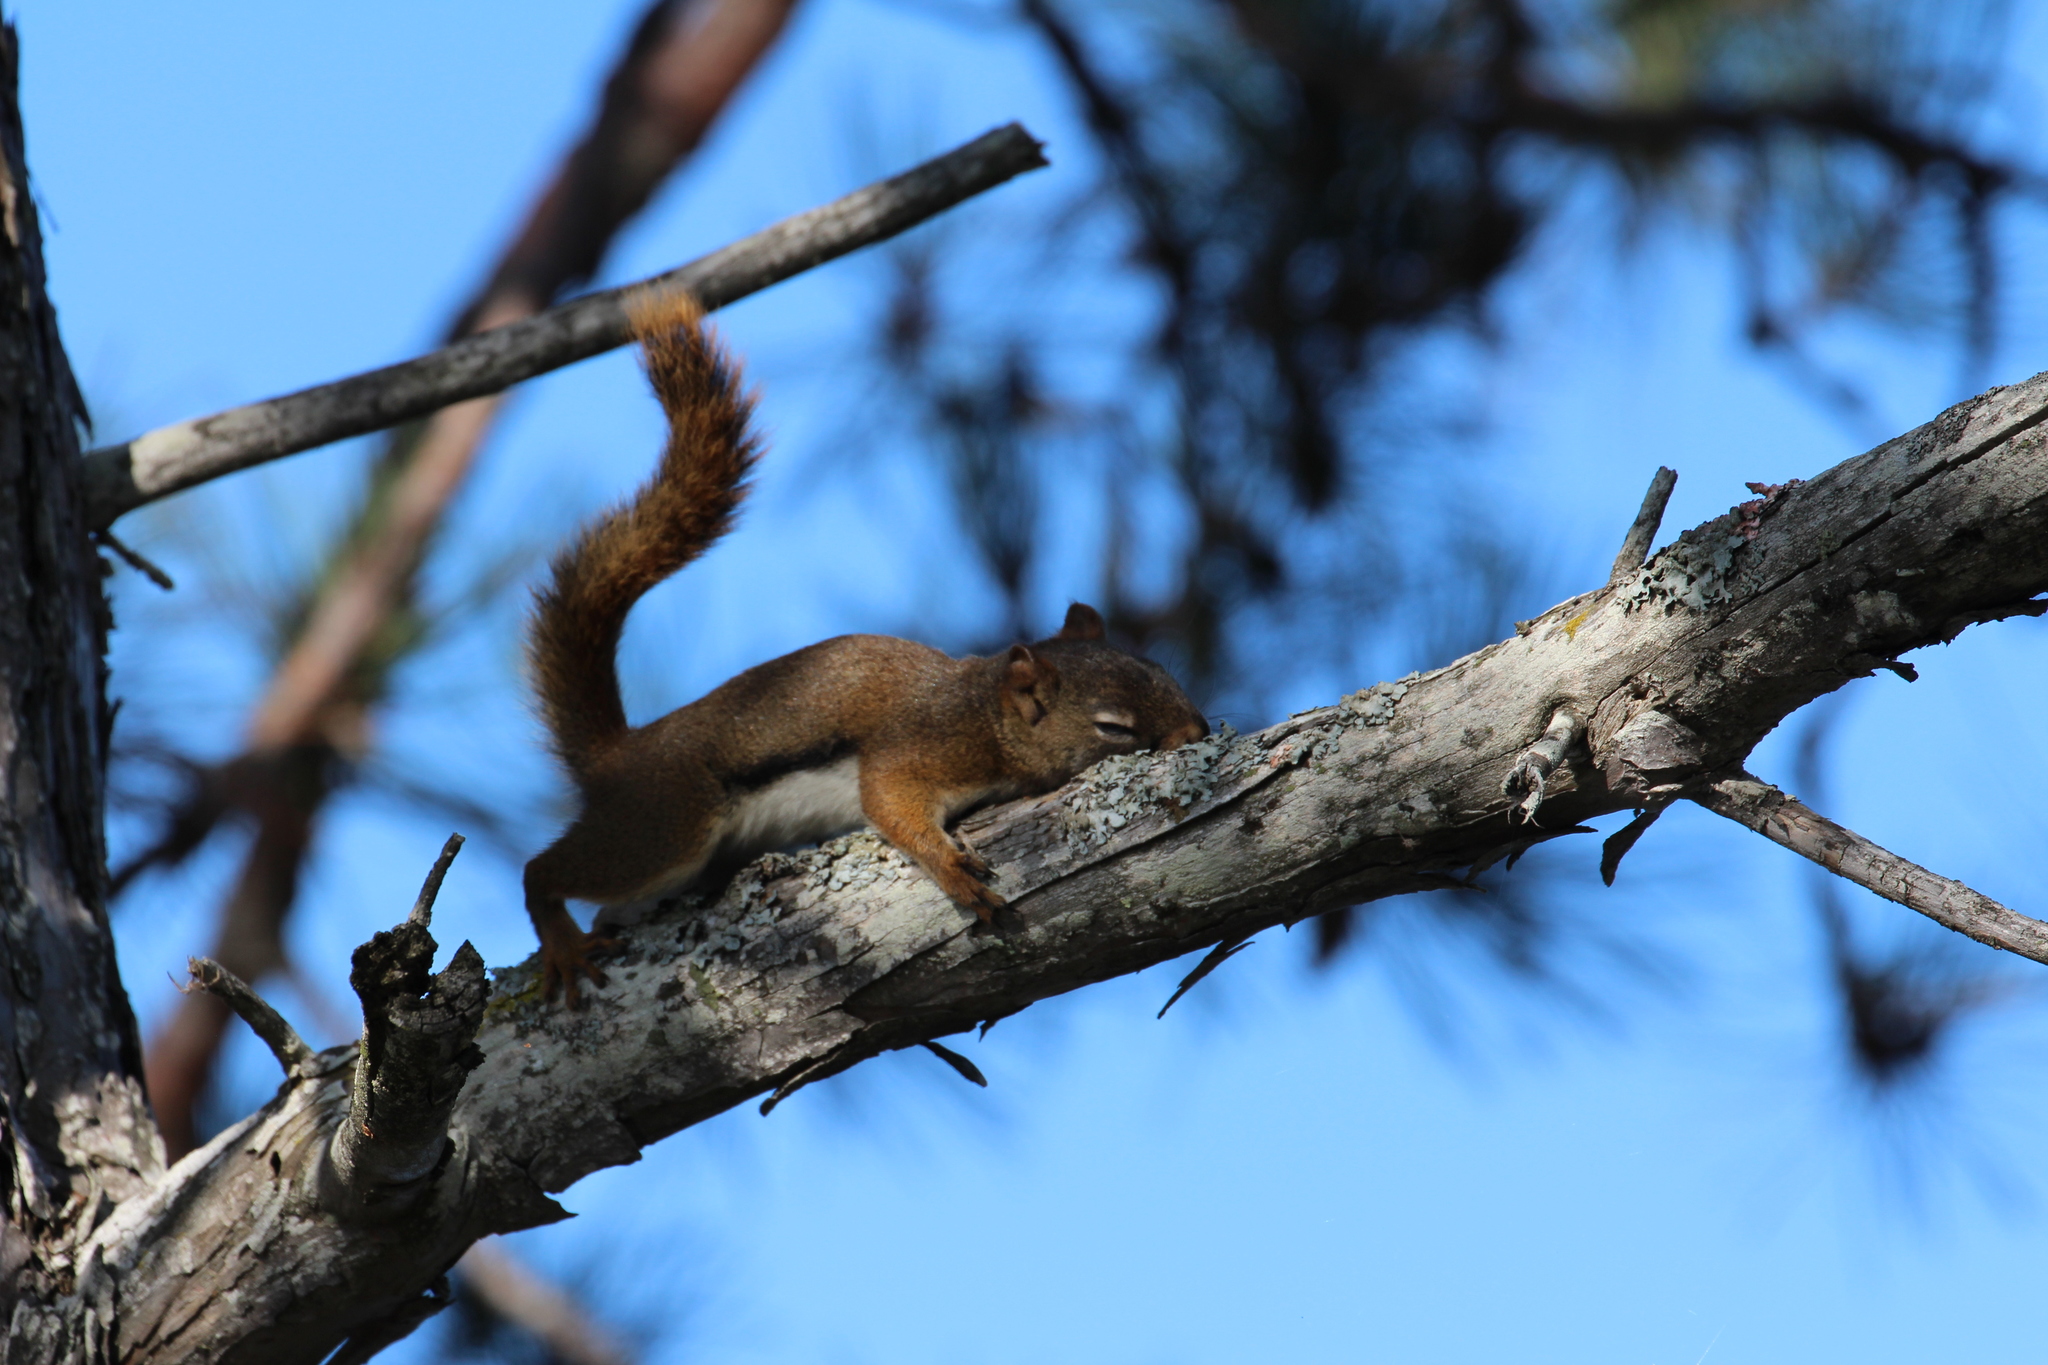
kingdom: Animalia
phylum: Chordata
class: Mammalia
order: Rodentia
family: Sciuridae
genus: Tamiasciurus
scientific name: Tamiasciurus hudsonicus
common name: Red squirrel
